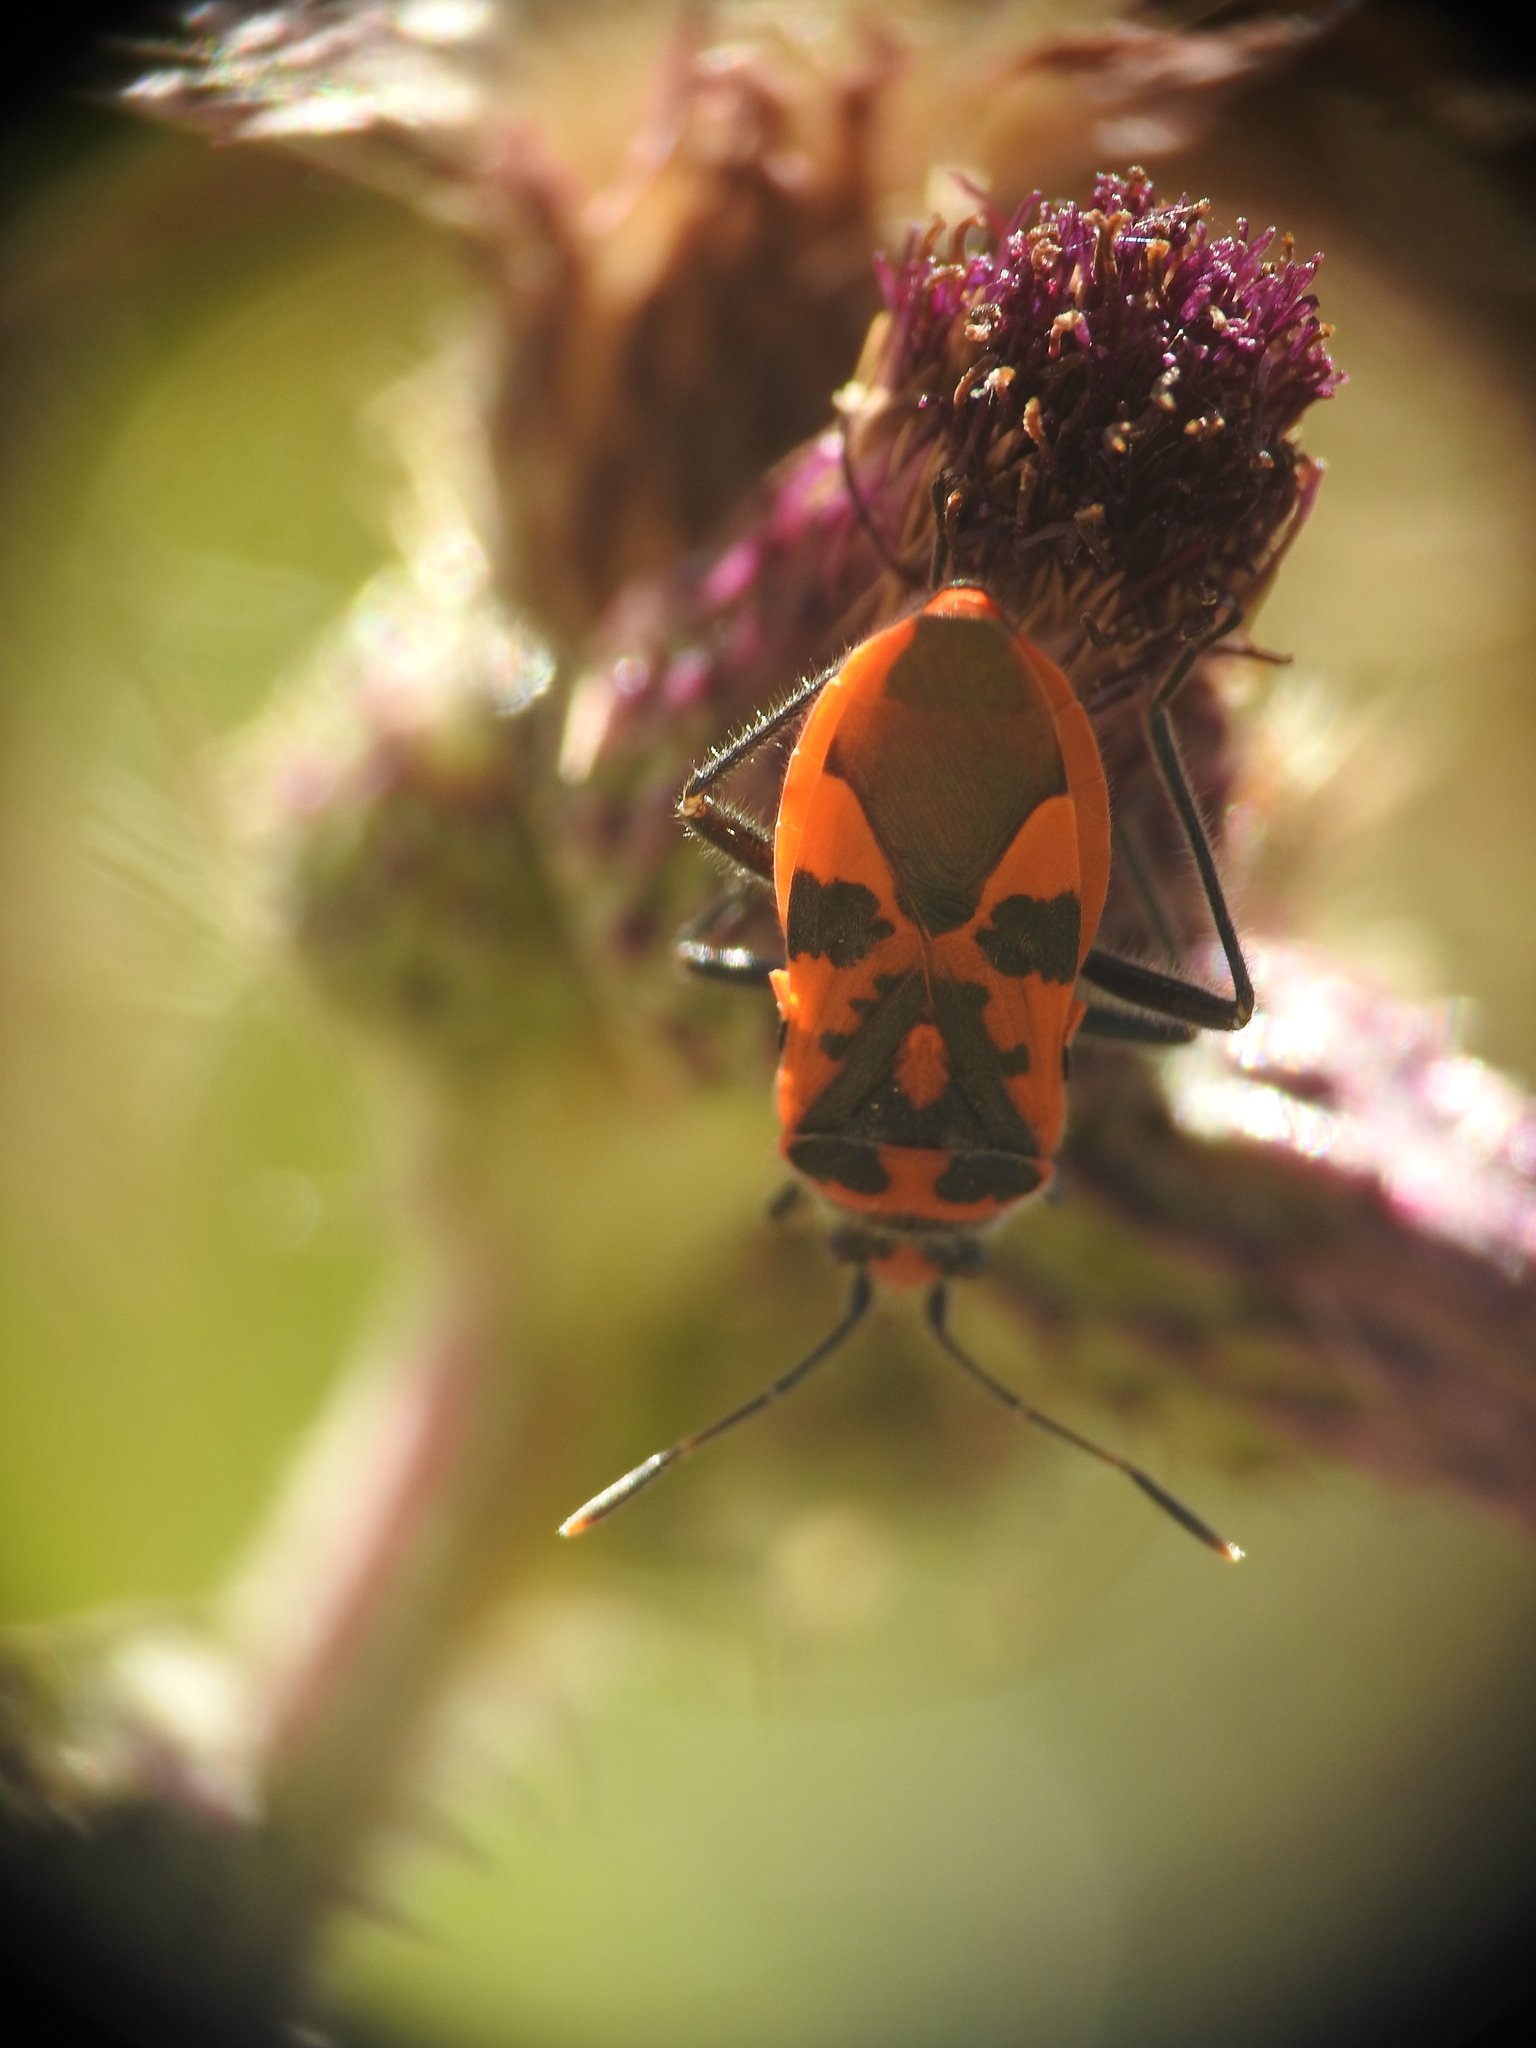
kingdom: Animalia
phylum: Arthropoda
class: Insecta
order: Hemiptera
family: Rhopalidae
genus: Corizus
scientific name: Corizus hyoscyami
